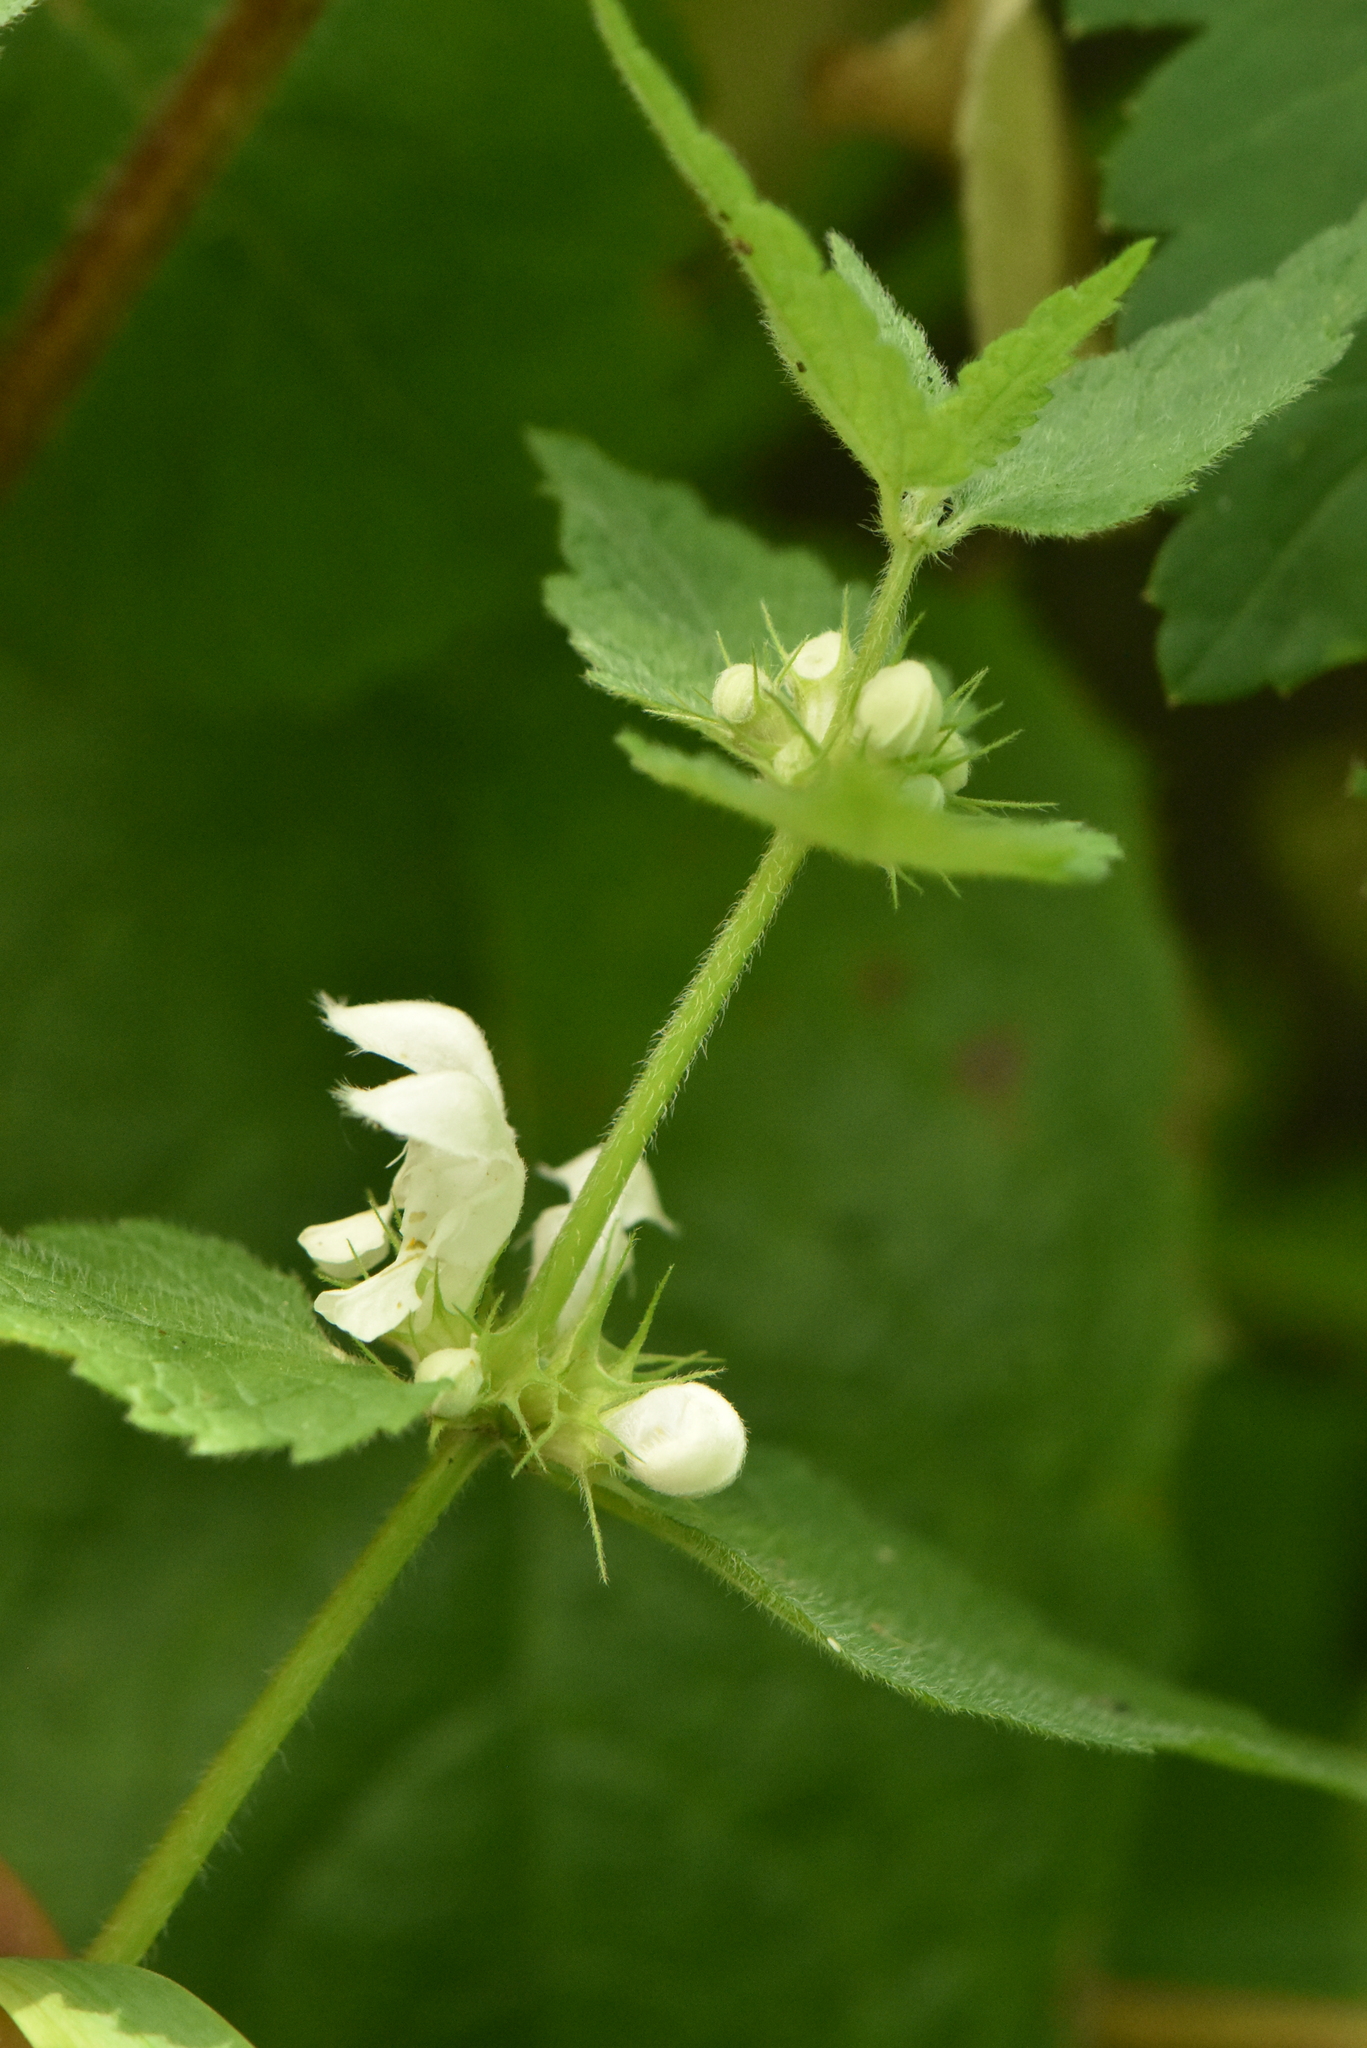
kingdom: Plantae
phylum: Tracheophyta
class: Magnoliopsida
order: Lamiales
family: Lamiaceae
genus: Lamium
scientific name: Lamium album
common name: White dead-nettle
